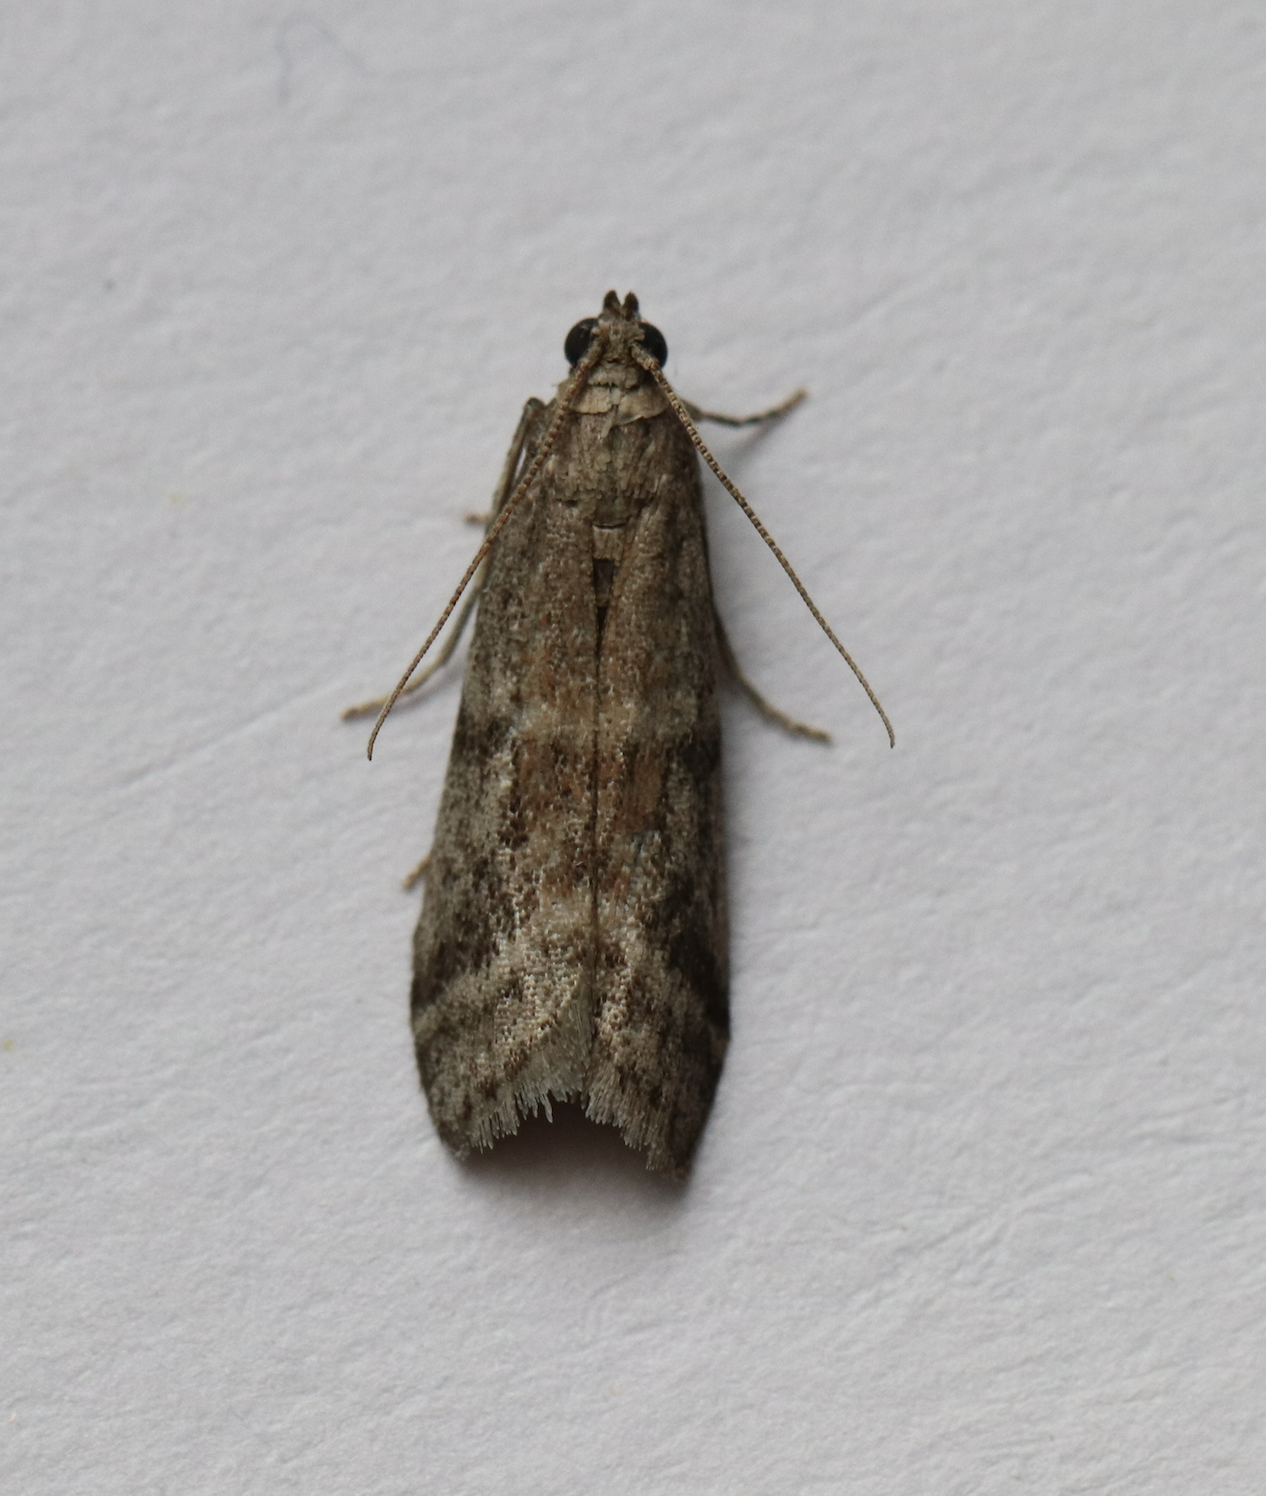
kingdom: Animalia
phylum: Arthropoda
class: Insecta
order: Lepidoptera
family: Pyralidae
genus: Ephestia
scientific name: Ephestia elutella
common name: Cacao moth
